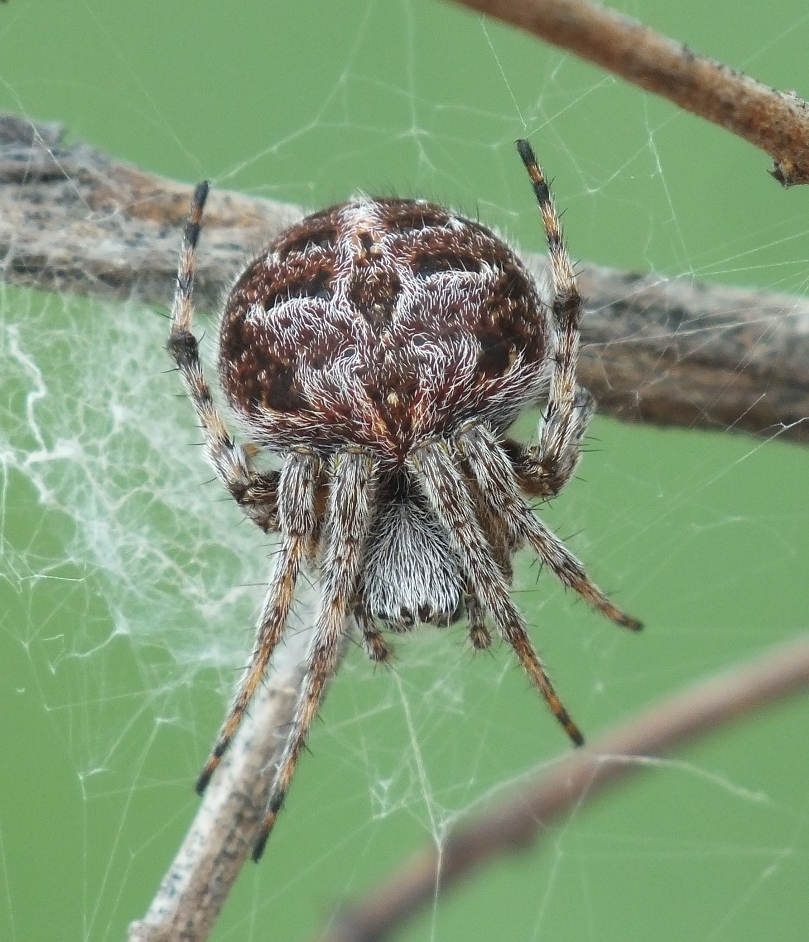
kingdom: Animalia
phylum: Arthropoda
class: Arachnida
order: Araneae
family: Araneidae
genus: Agalenatea
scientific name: Agalenatea redii
